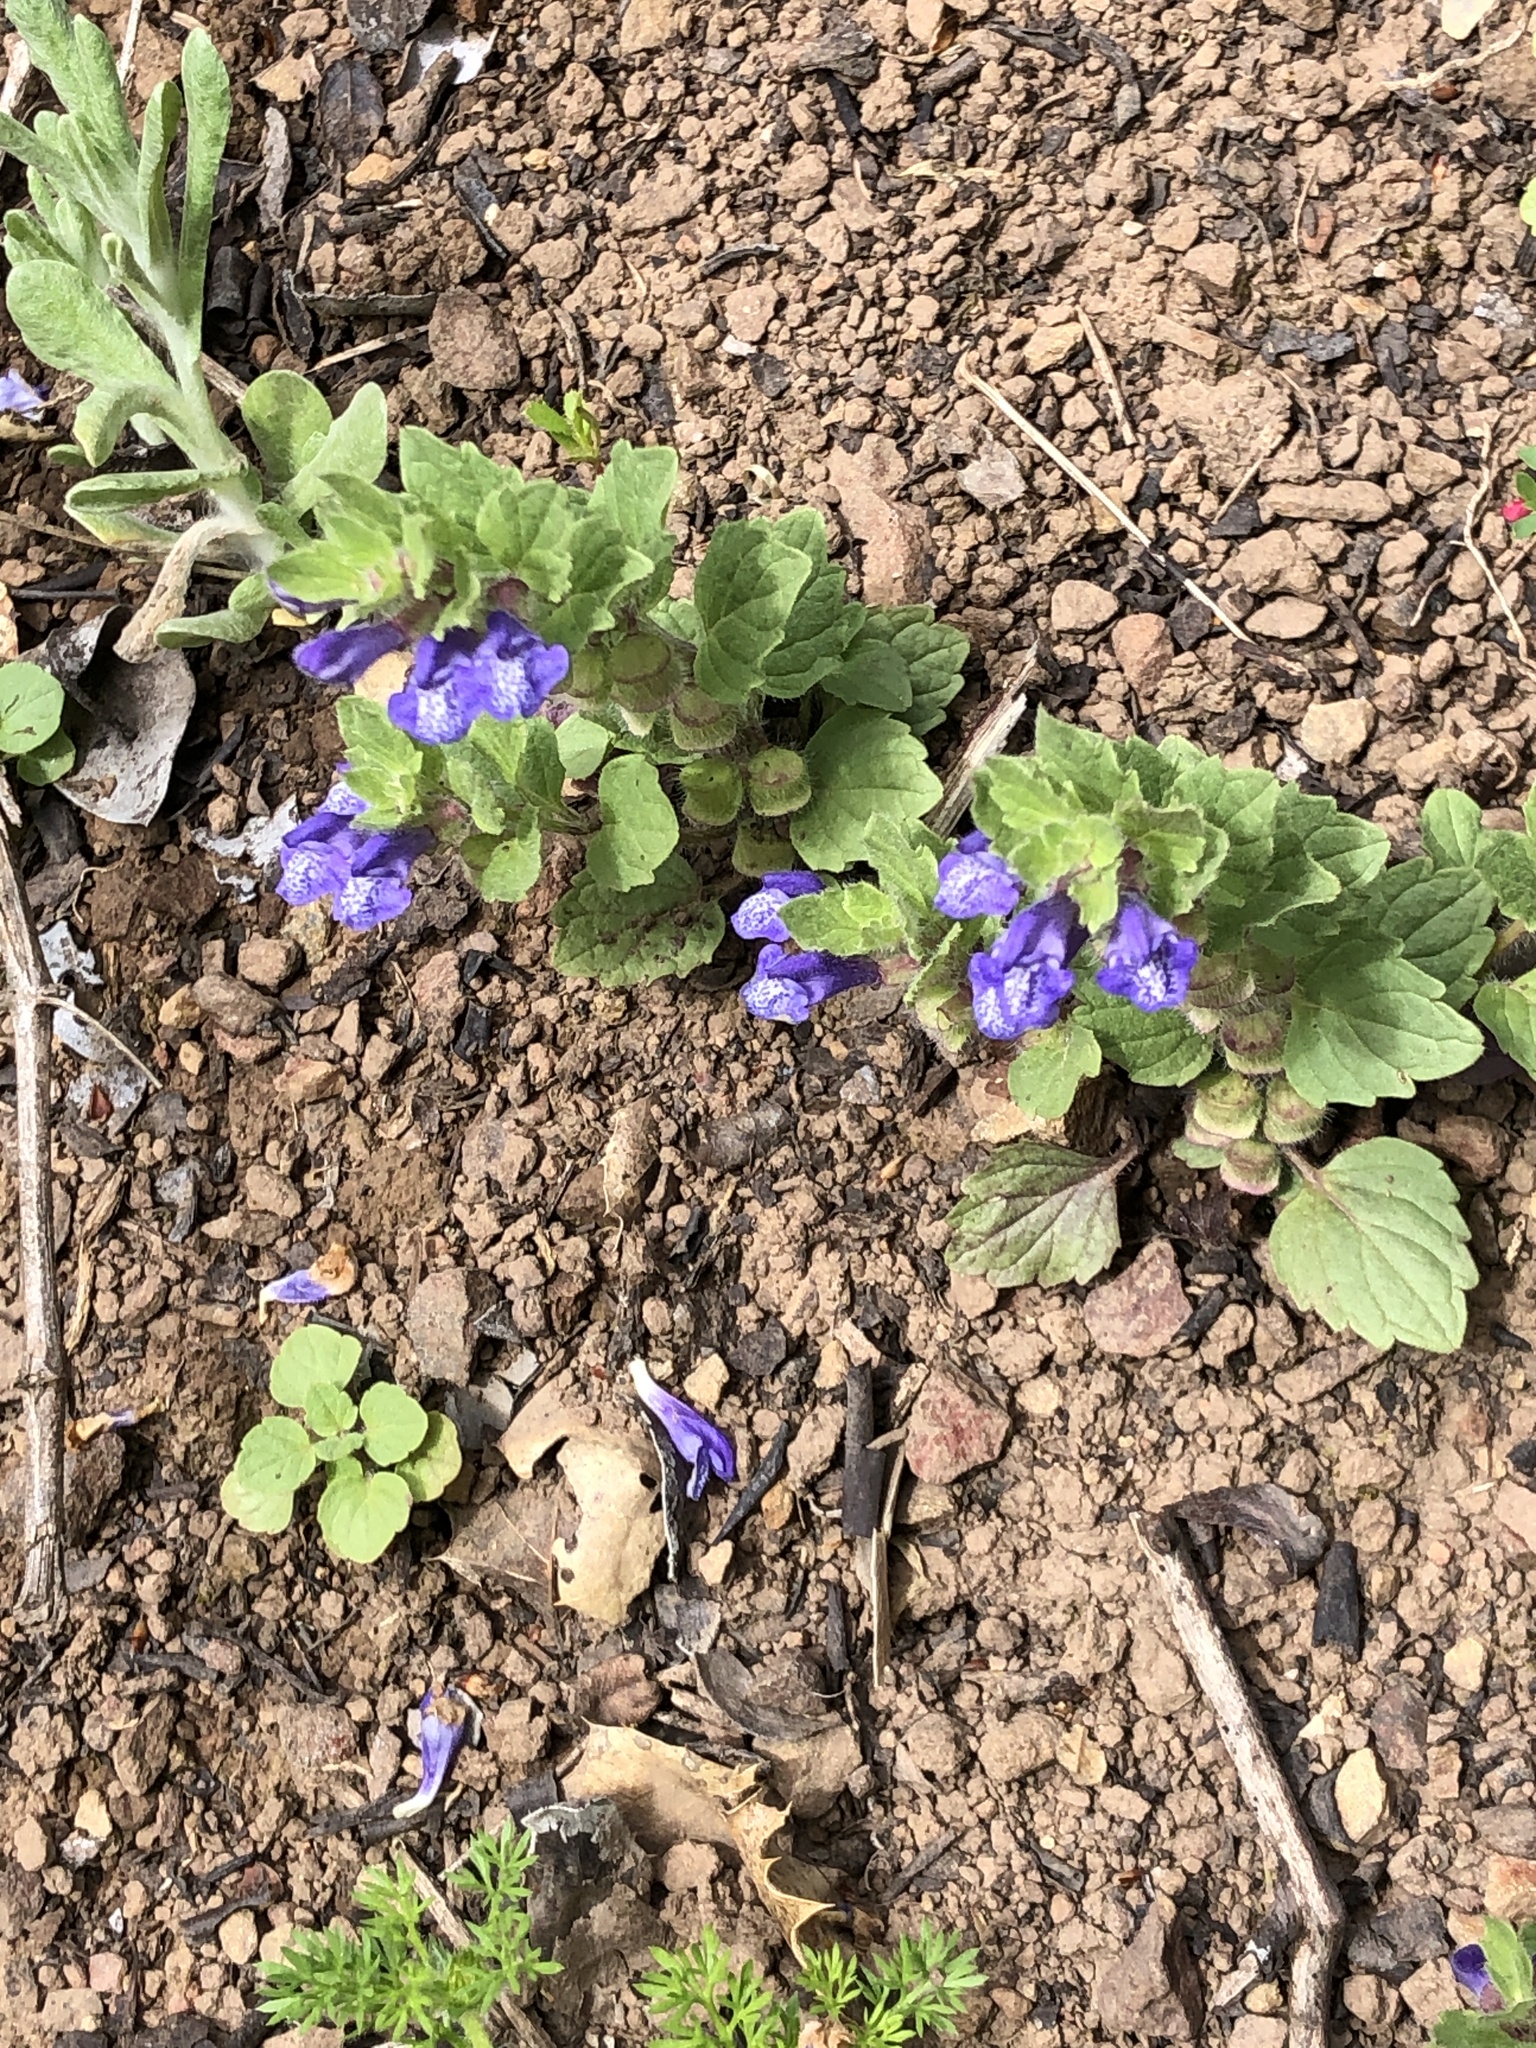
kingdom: Plantae
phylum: Tracheophyta
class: Magnoliopsida
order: Lamiales
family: Lamiaceae
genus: Scutellaria
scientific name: Scutellaria tuberosa
